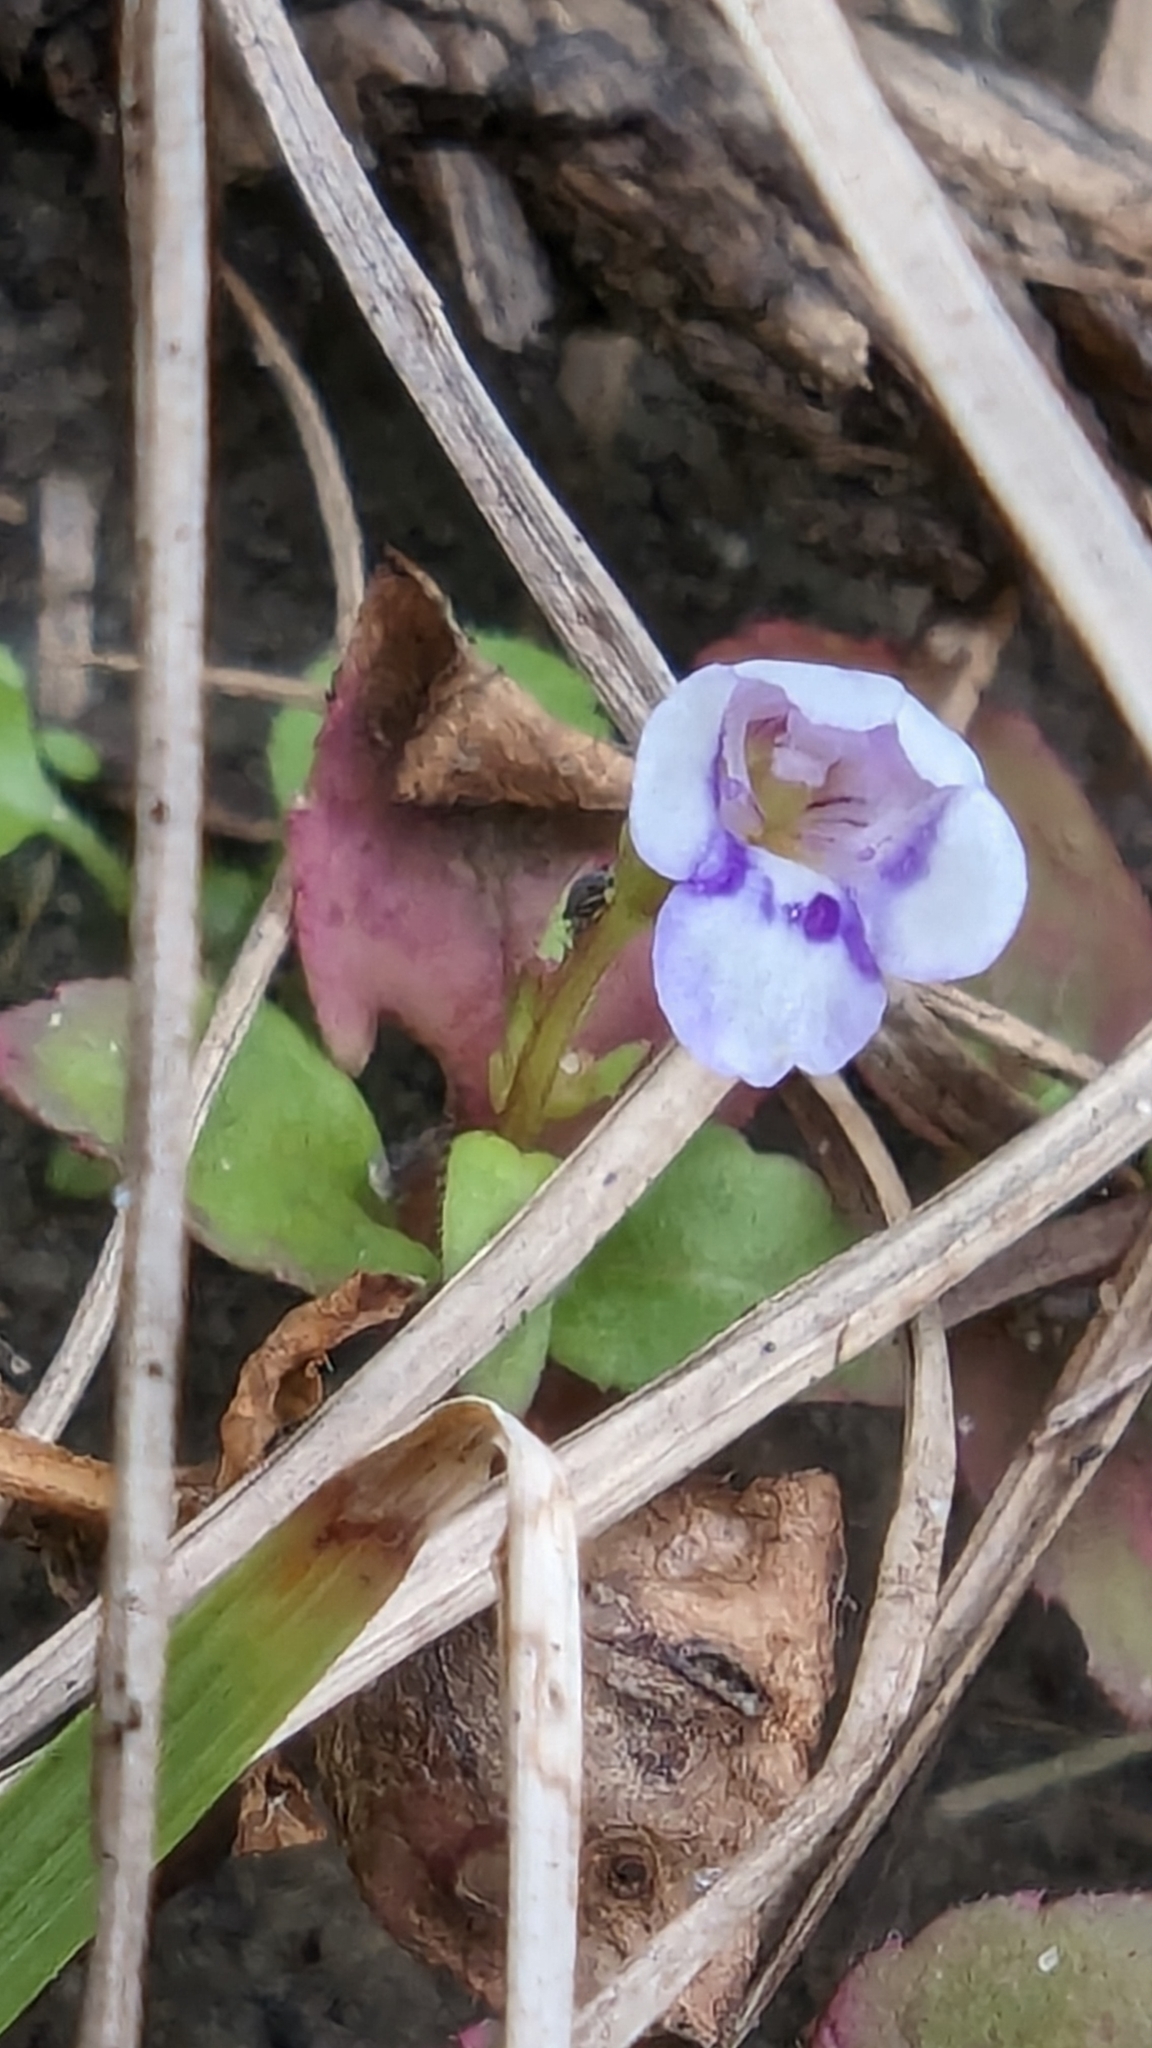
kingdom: Plantae
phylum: Tracheophyta
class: Magnoliopsida
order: Lamiales
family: Linderniaceae
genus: Torenia
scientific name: Torenia crustacea
